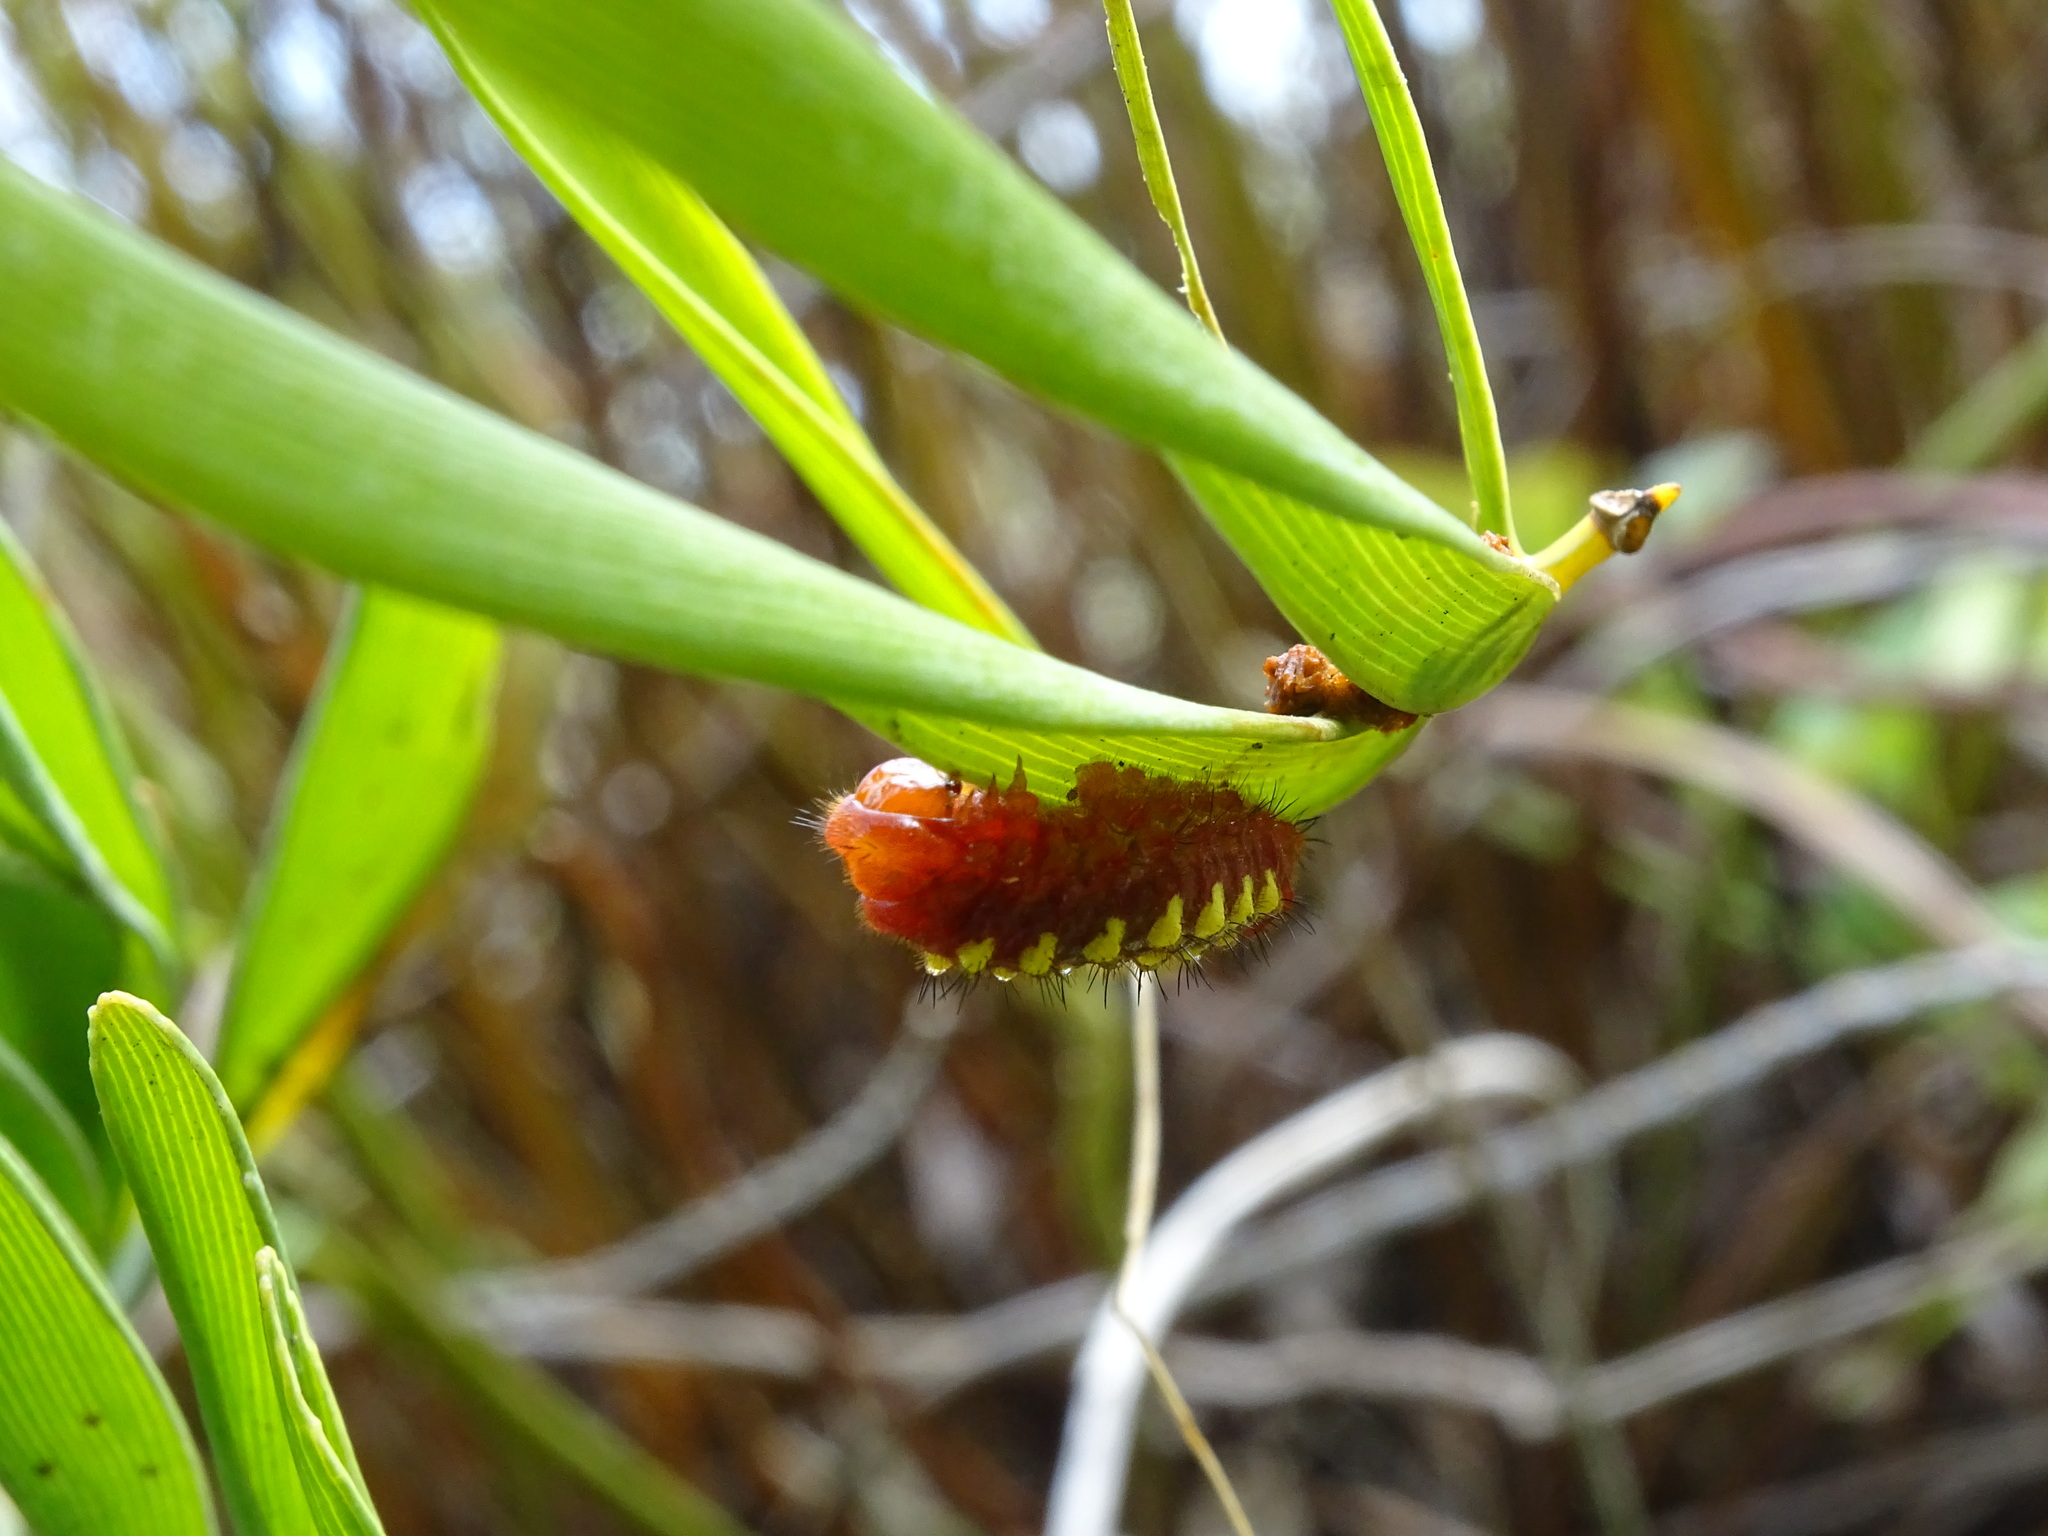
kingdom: Animalia
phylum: Arthropoda
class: Insecta
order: Lepidoptera
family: Lycaenidae
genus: Eumaeus
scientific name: Eumaeus atala
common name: Atala
